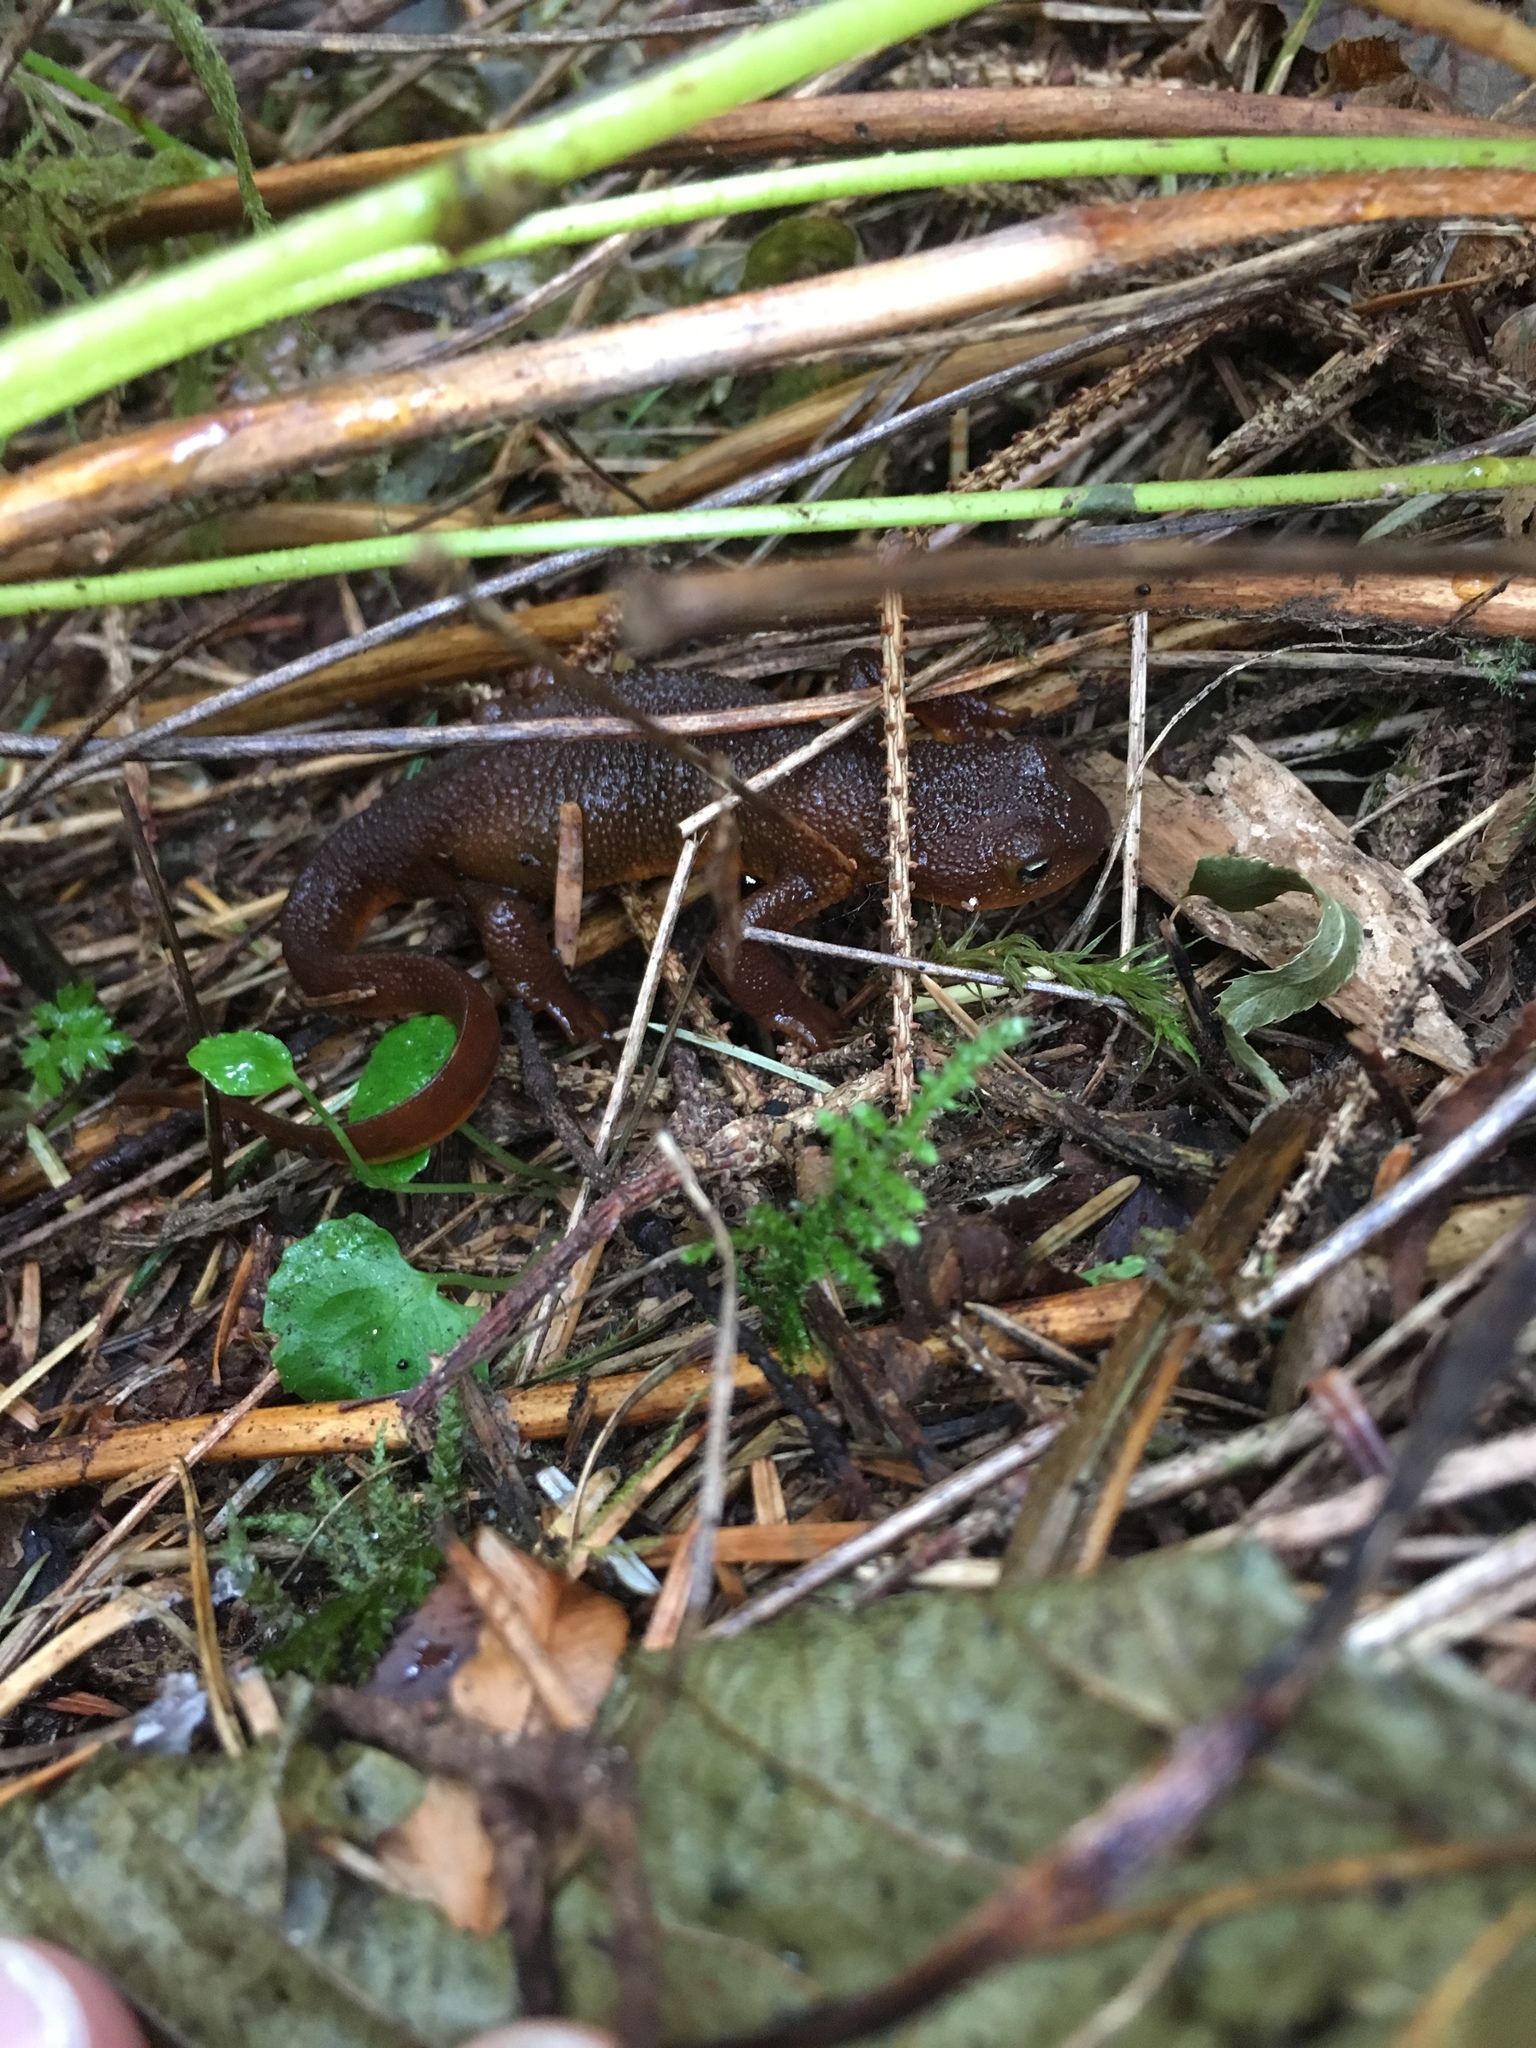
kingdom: Animalia
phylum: Chordata
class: Amphibia
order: Caudata
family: Salamandridae
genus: Taricha
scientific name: Taricha granulosa
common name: Roughskin newt
